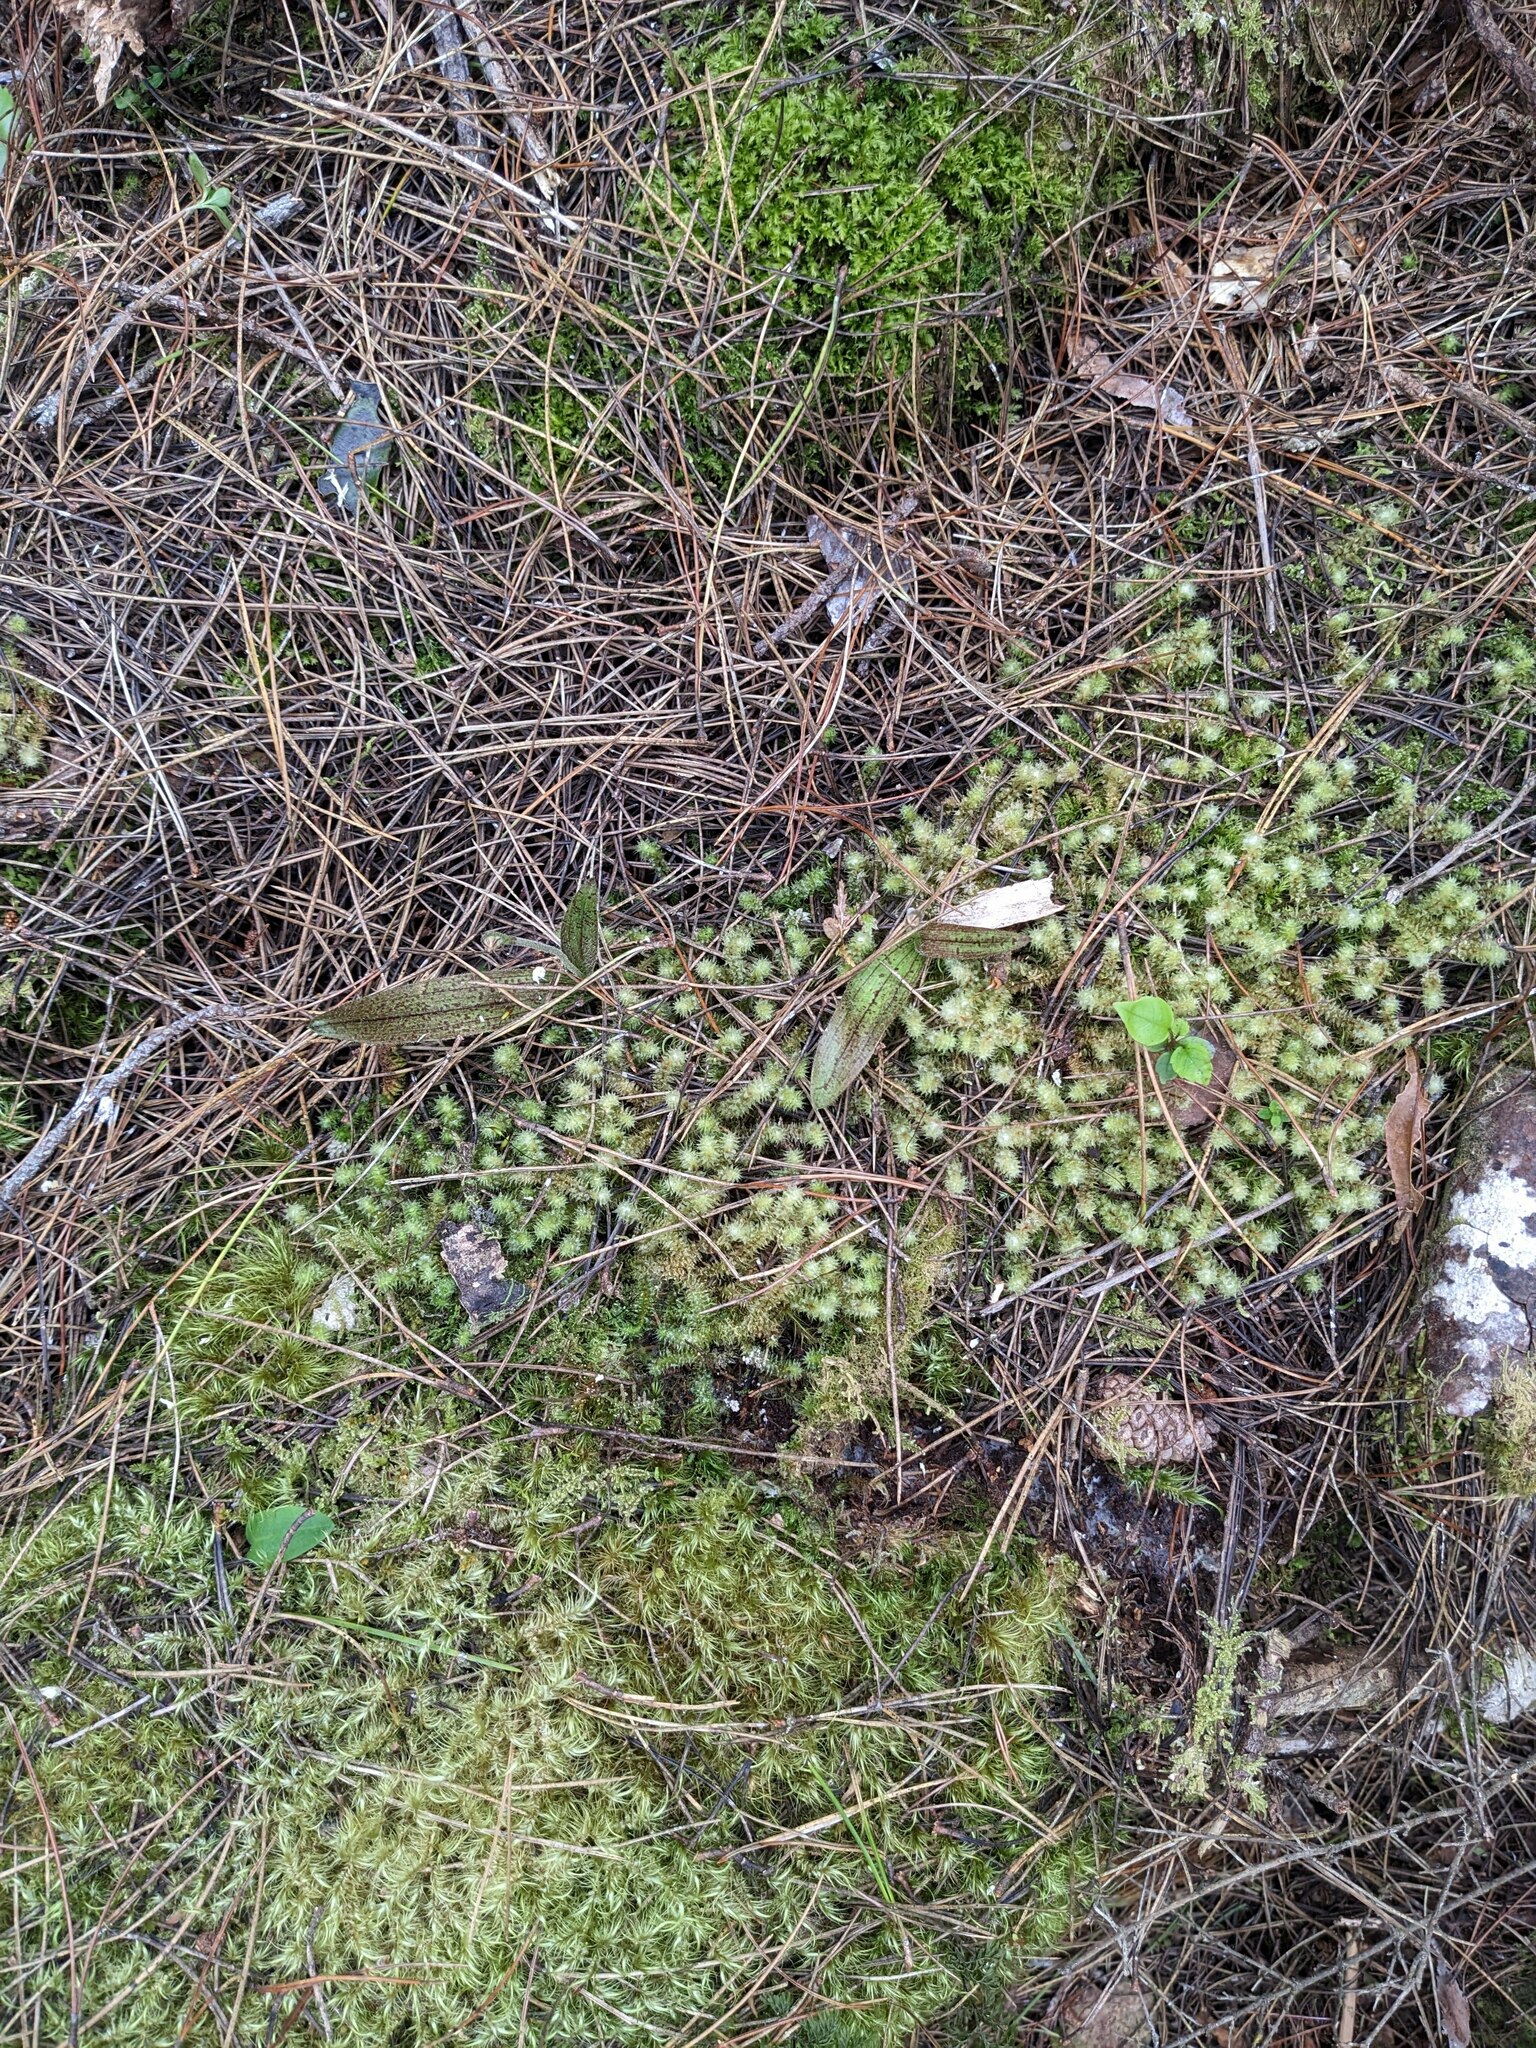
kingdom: Plantae
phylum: Tracheophyta
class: Liliopsida
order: Asparagales
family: Orchidaceae
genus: Aporostylis
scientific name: Aporostylis bifolia
